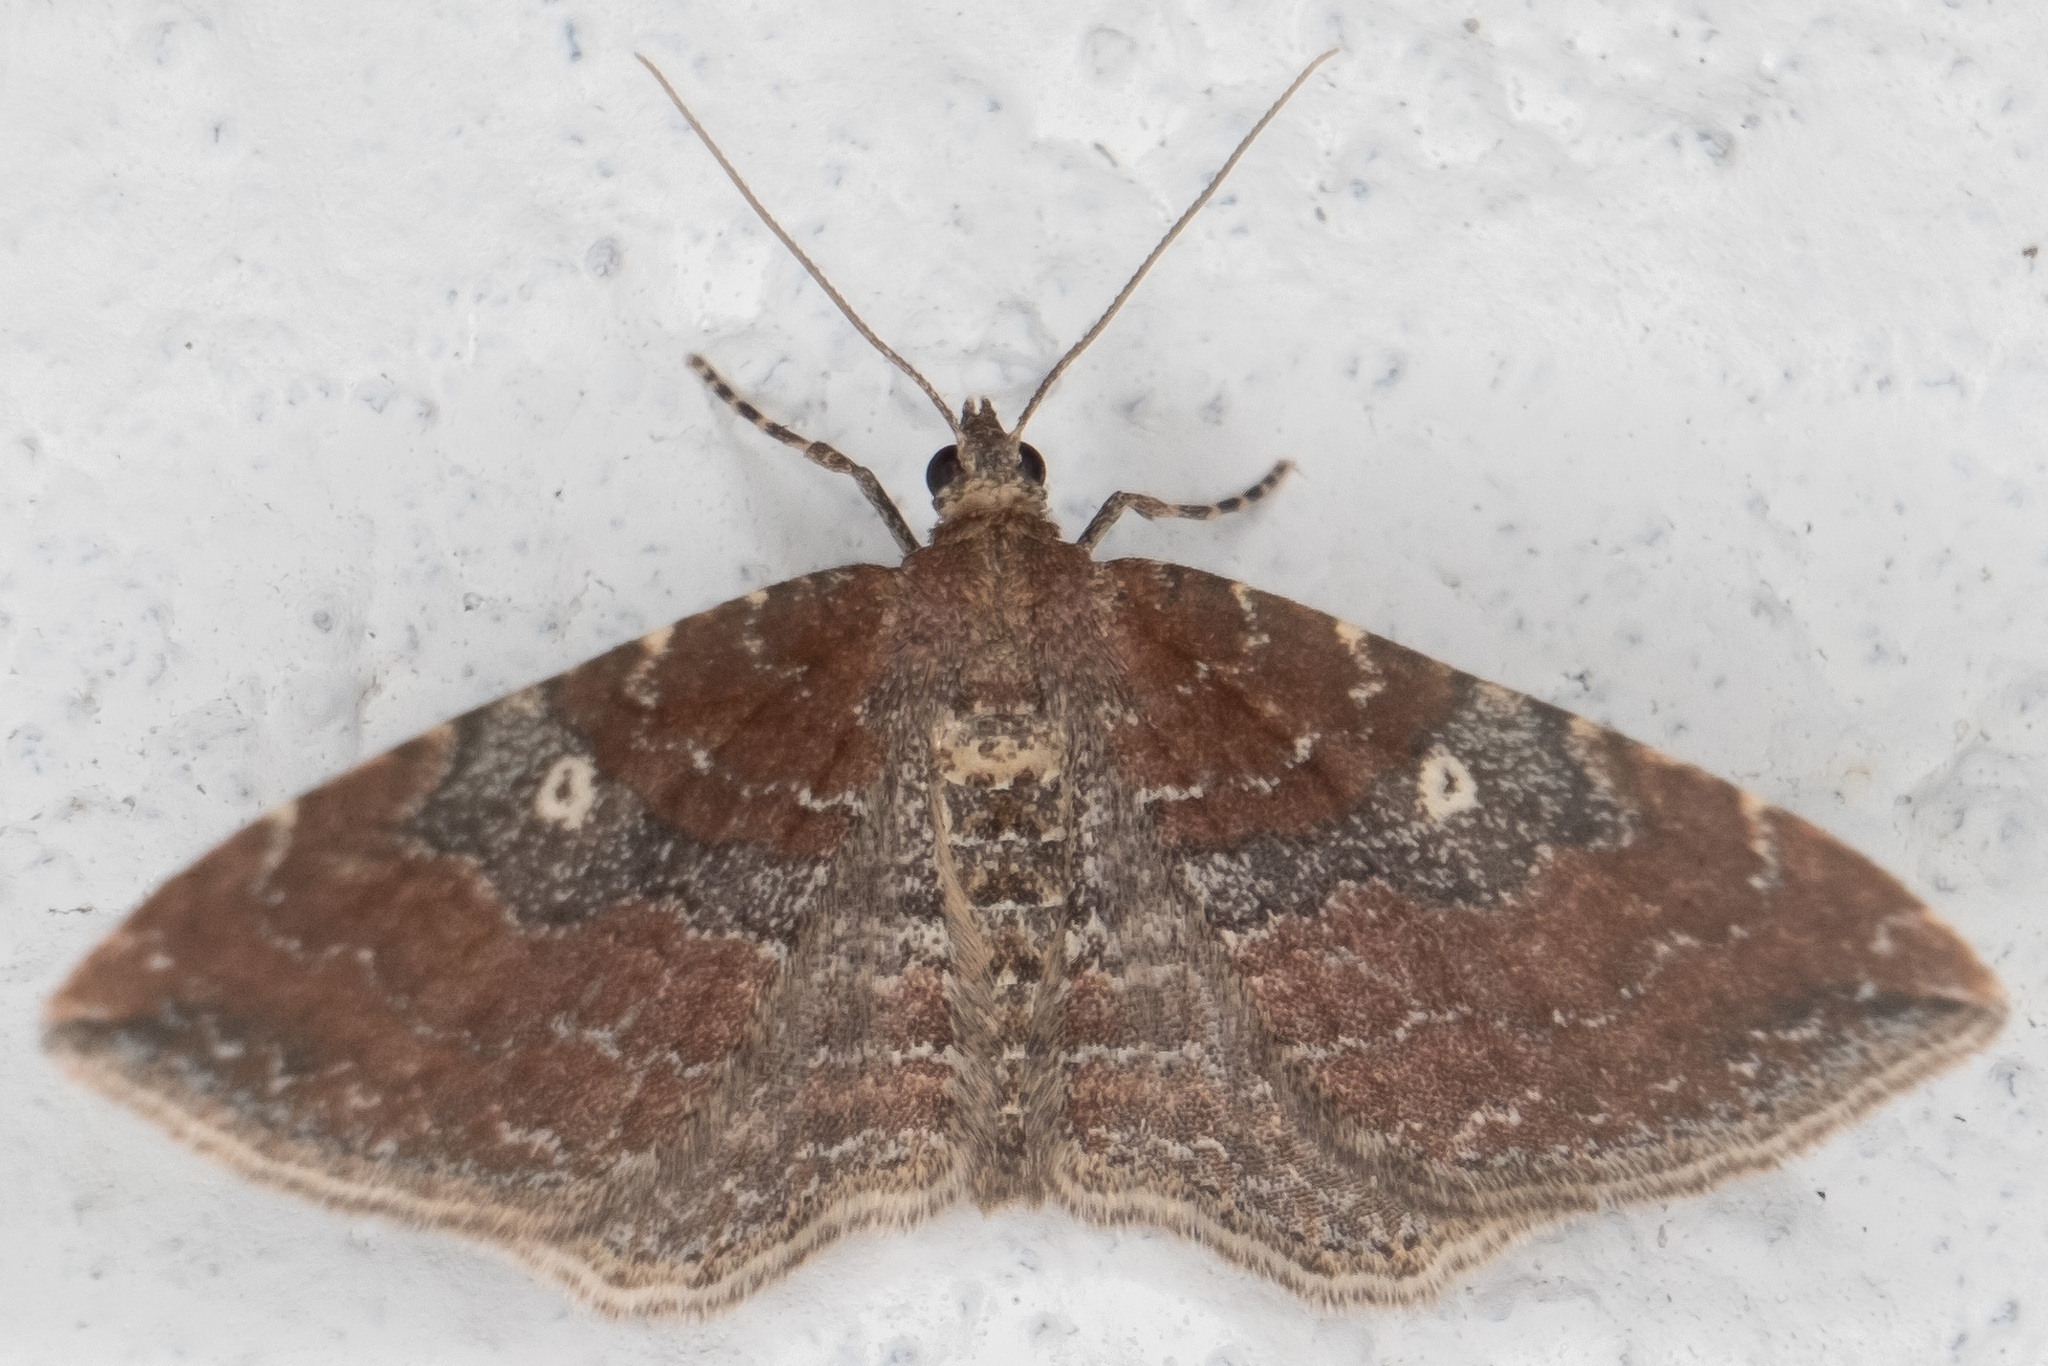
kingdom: Animalia
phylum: Arthropoda
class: Insecta
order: Lepidoptera
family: Geometridae
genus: Orthonama
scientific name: Orthonama obstipata
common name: The gem
